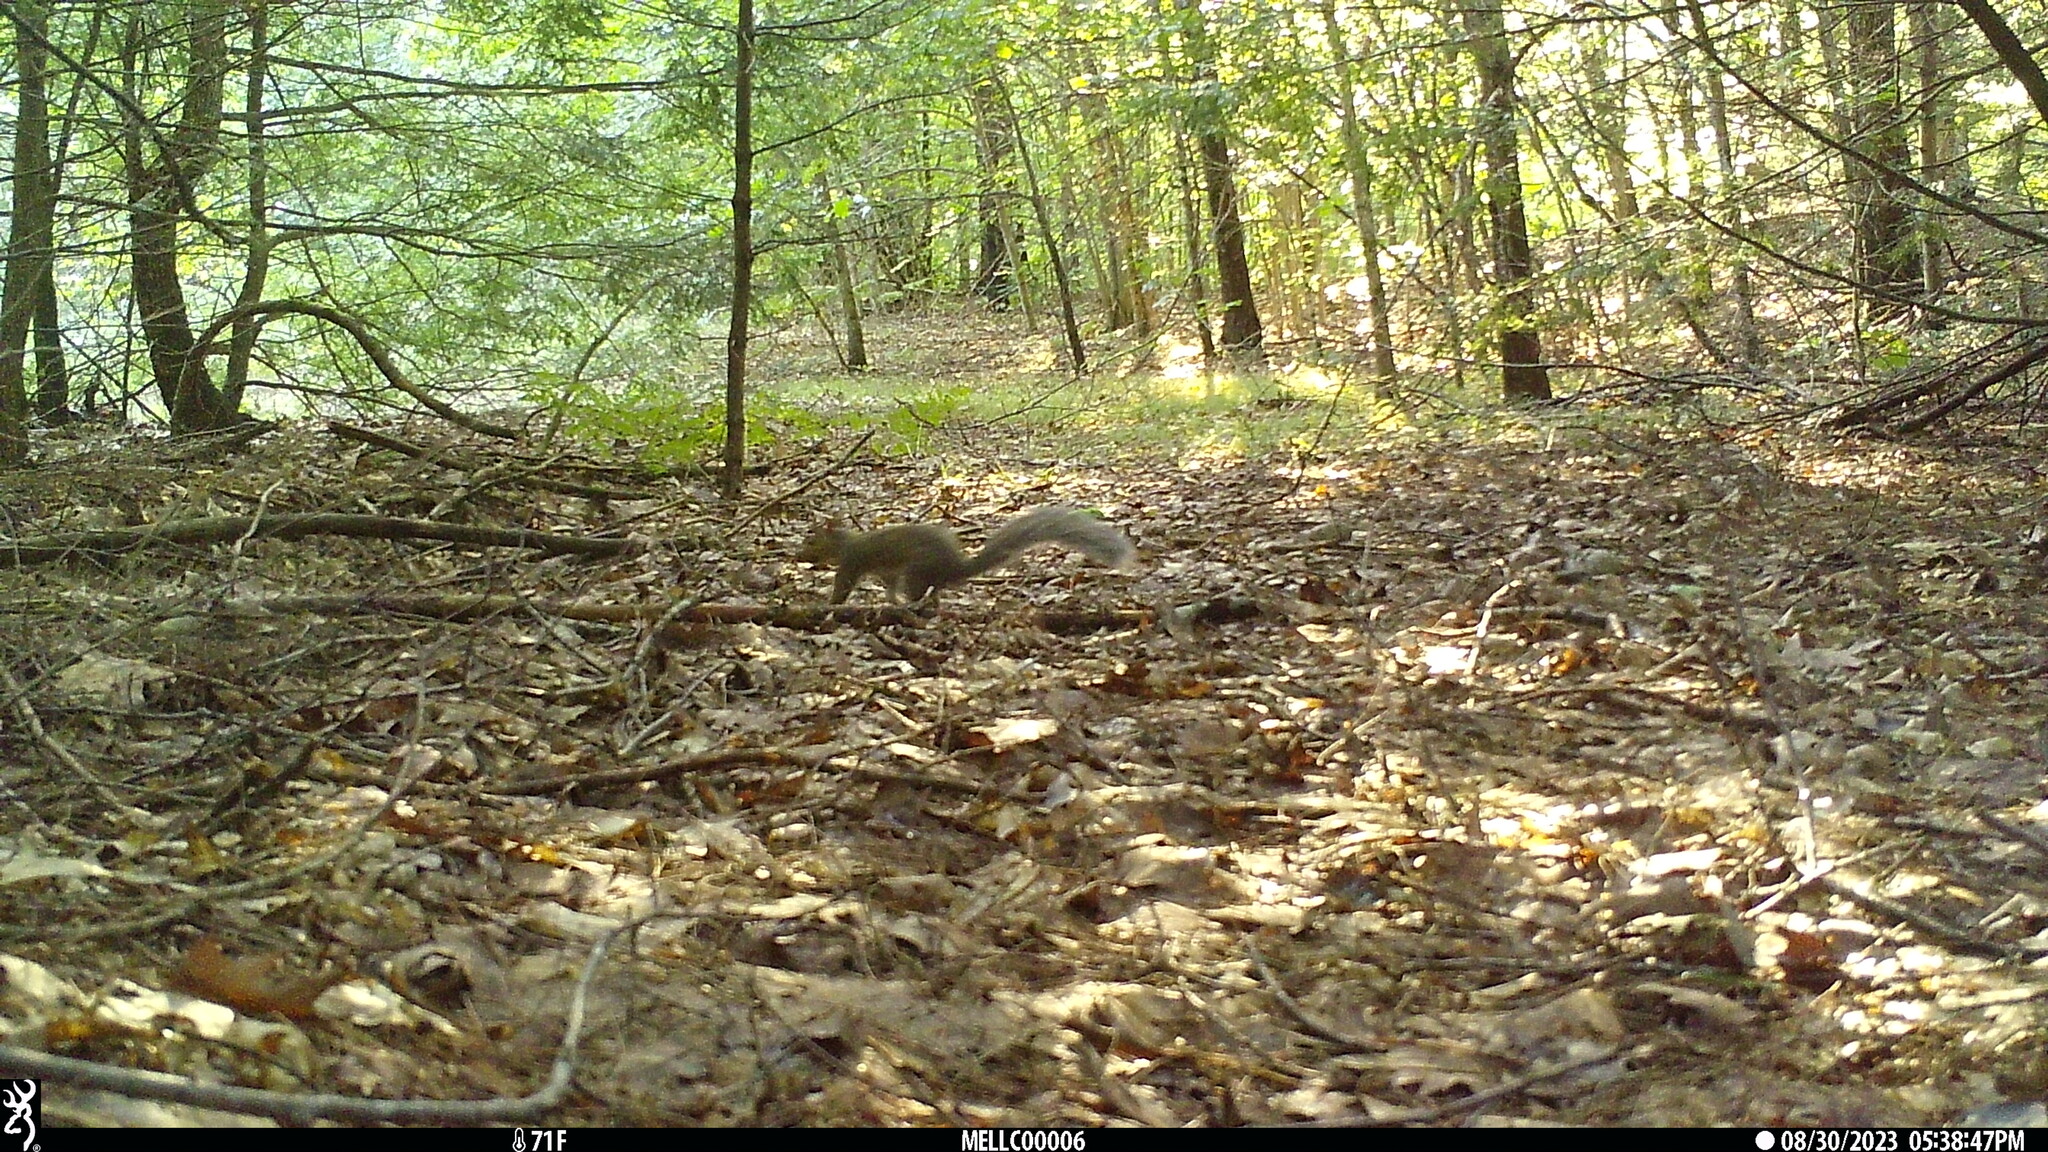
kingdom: Animalia
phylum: Chordata
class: Mammalia
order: Rodentia
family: Sciuridae
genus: Sciurus
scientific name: Sciurus carolinensis
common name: Eastern gray squirrel
